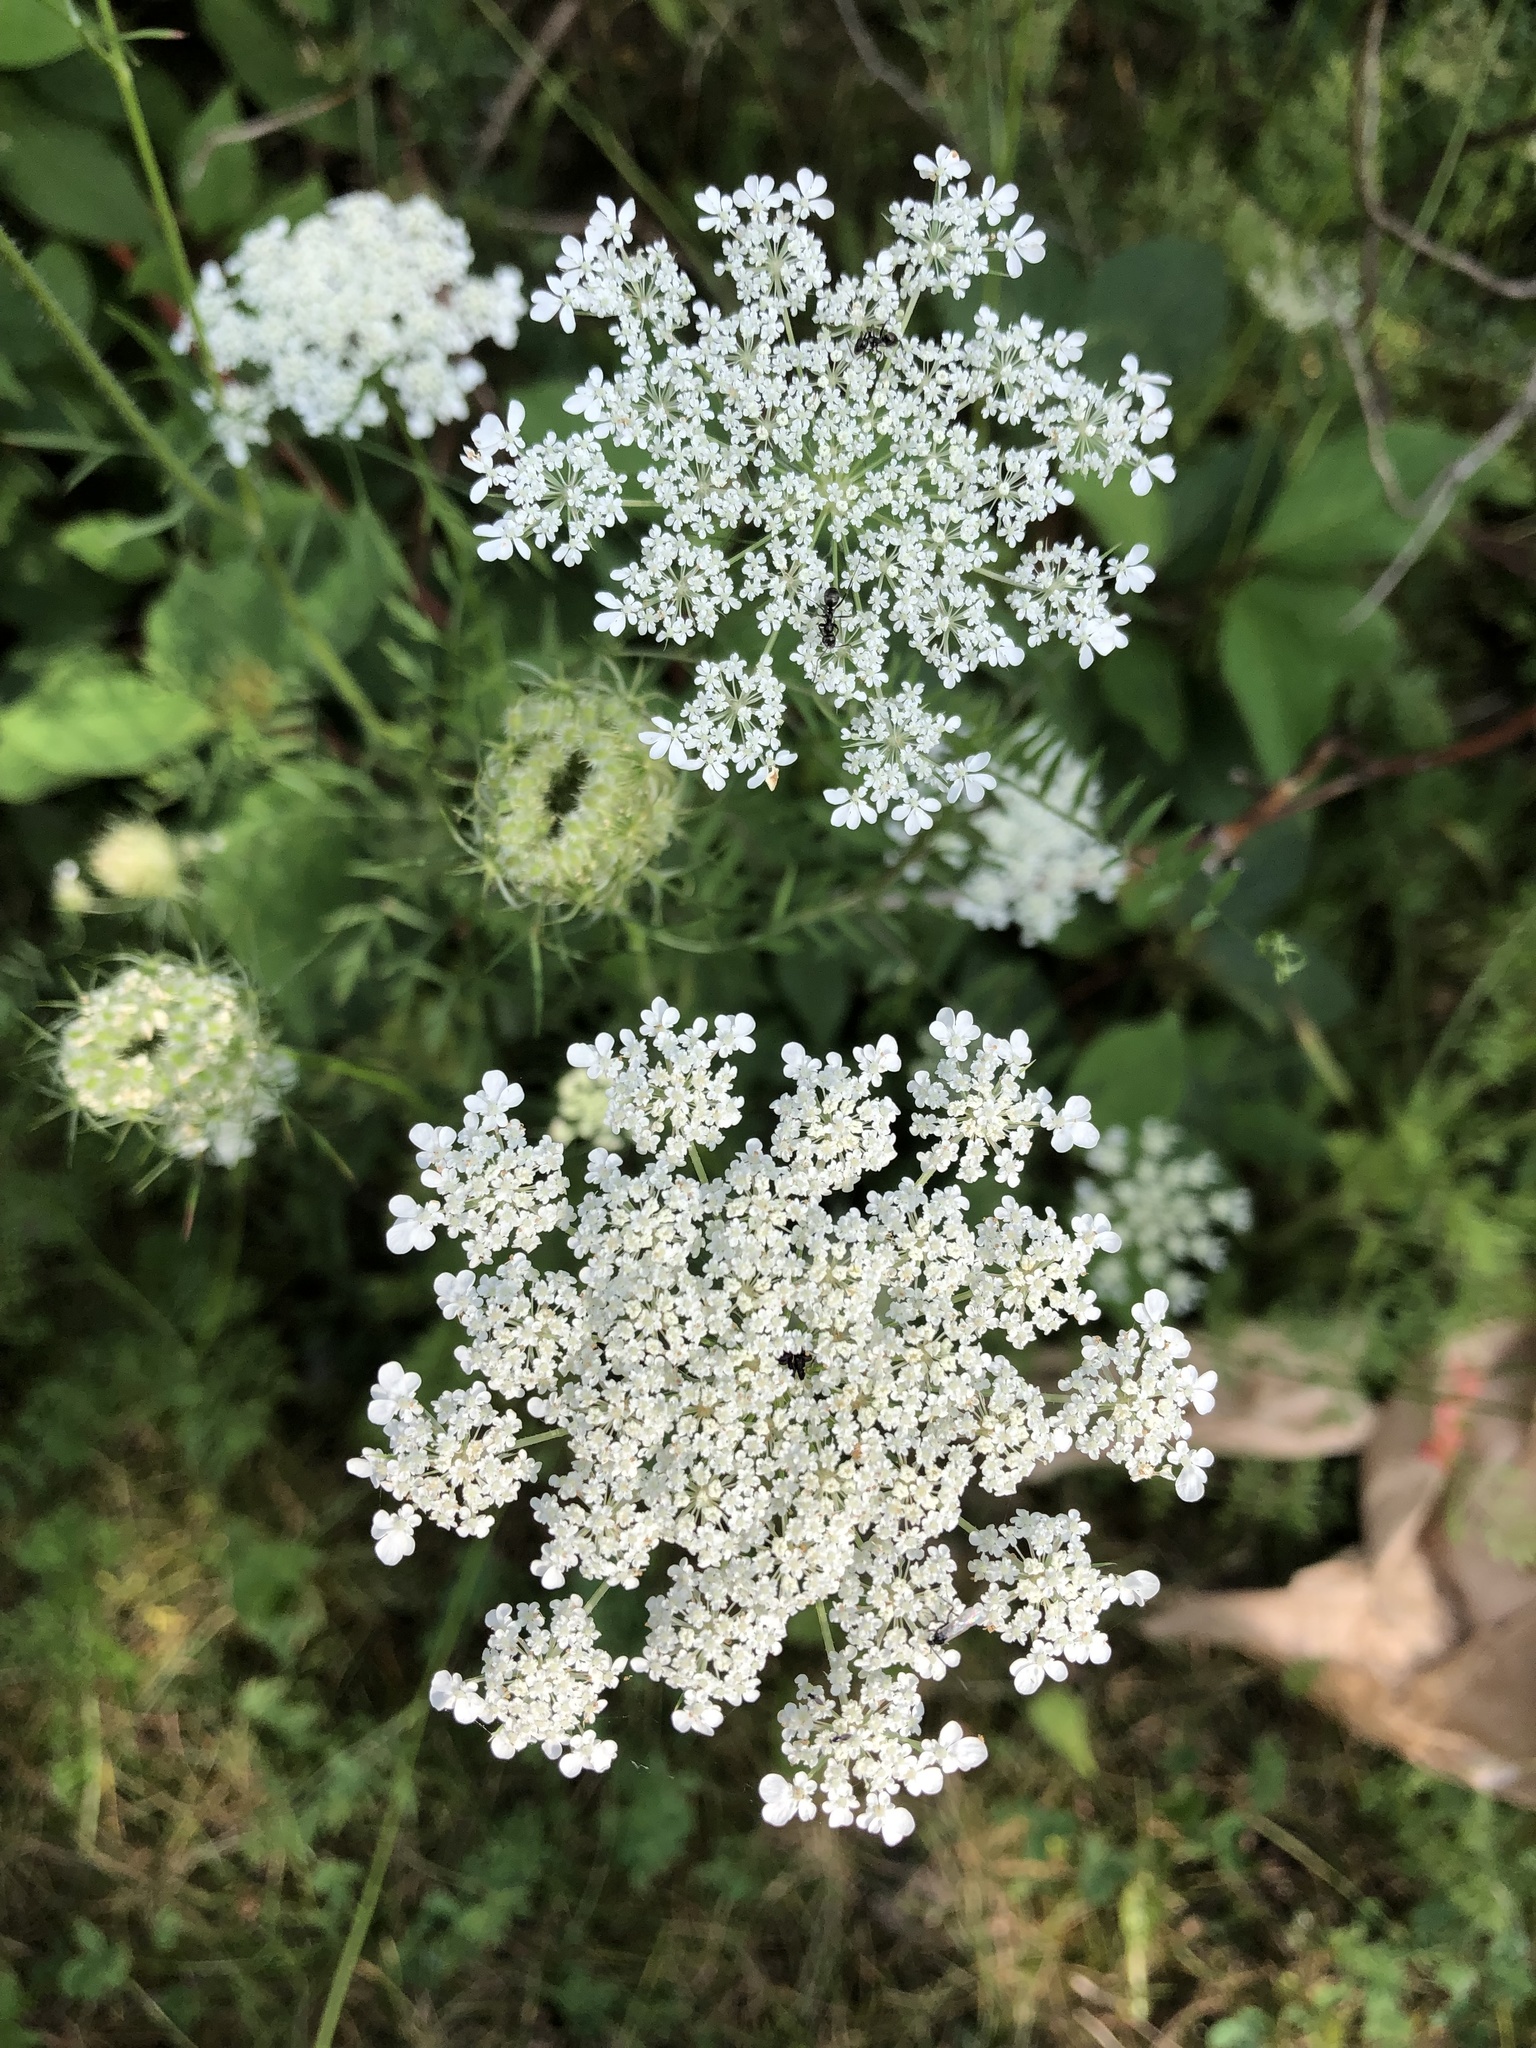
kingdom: Plantae
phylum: Tracheophyta
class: Magnoliopsida
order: Apiales
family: Apiaceae
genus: Daucus
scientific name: Daucus carota
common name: Wild carrot
